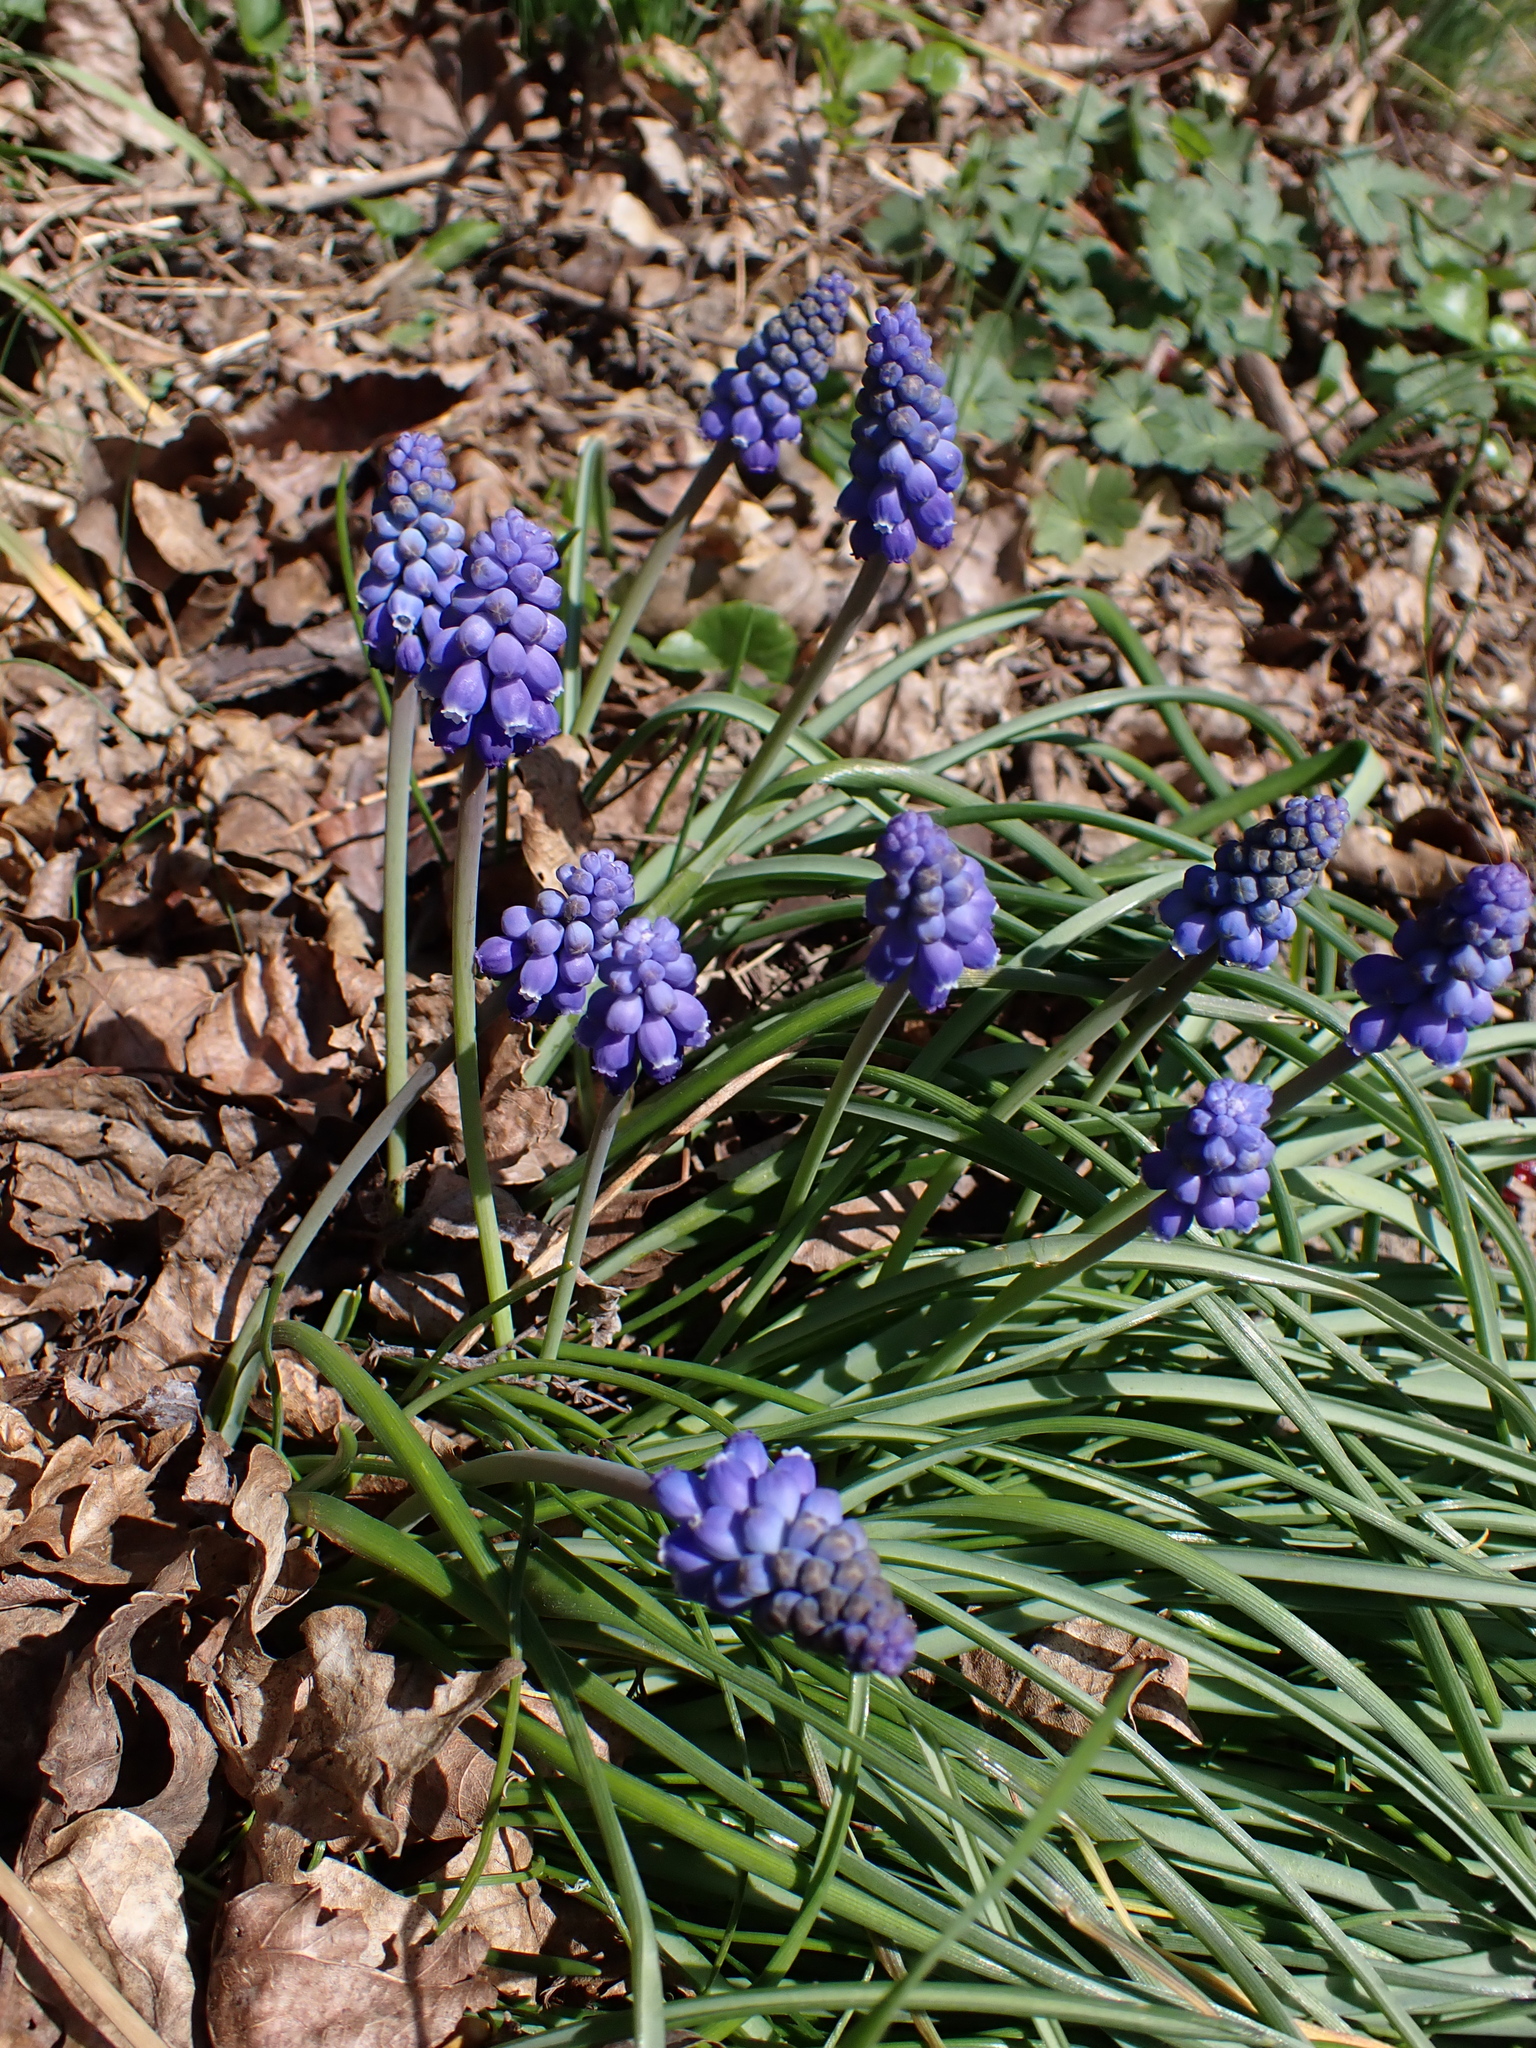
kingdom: Plantae
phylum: Tracheophyta
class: Liliopsida
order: Asparagales
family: Asparagaceae
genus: Muscari
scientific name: Muscari armeniacum
